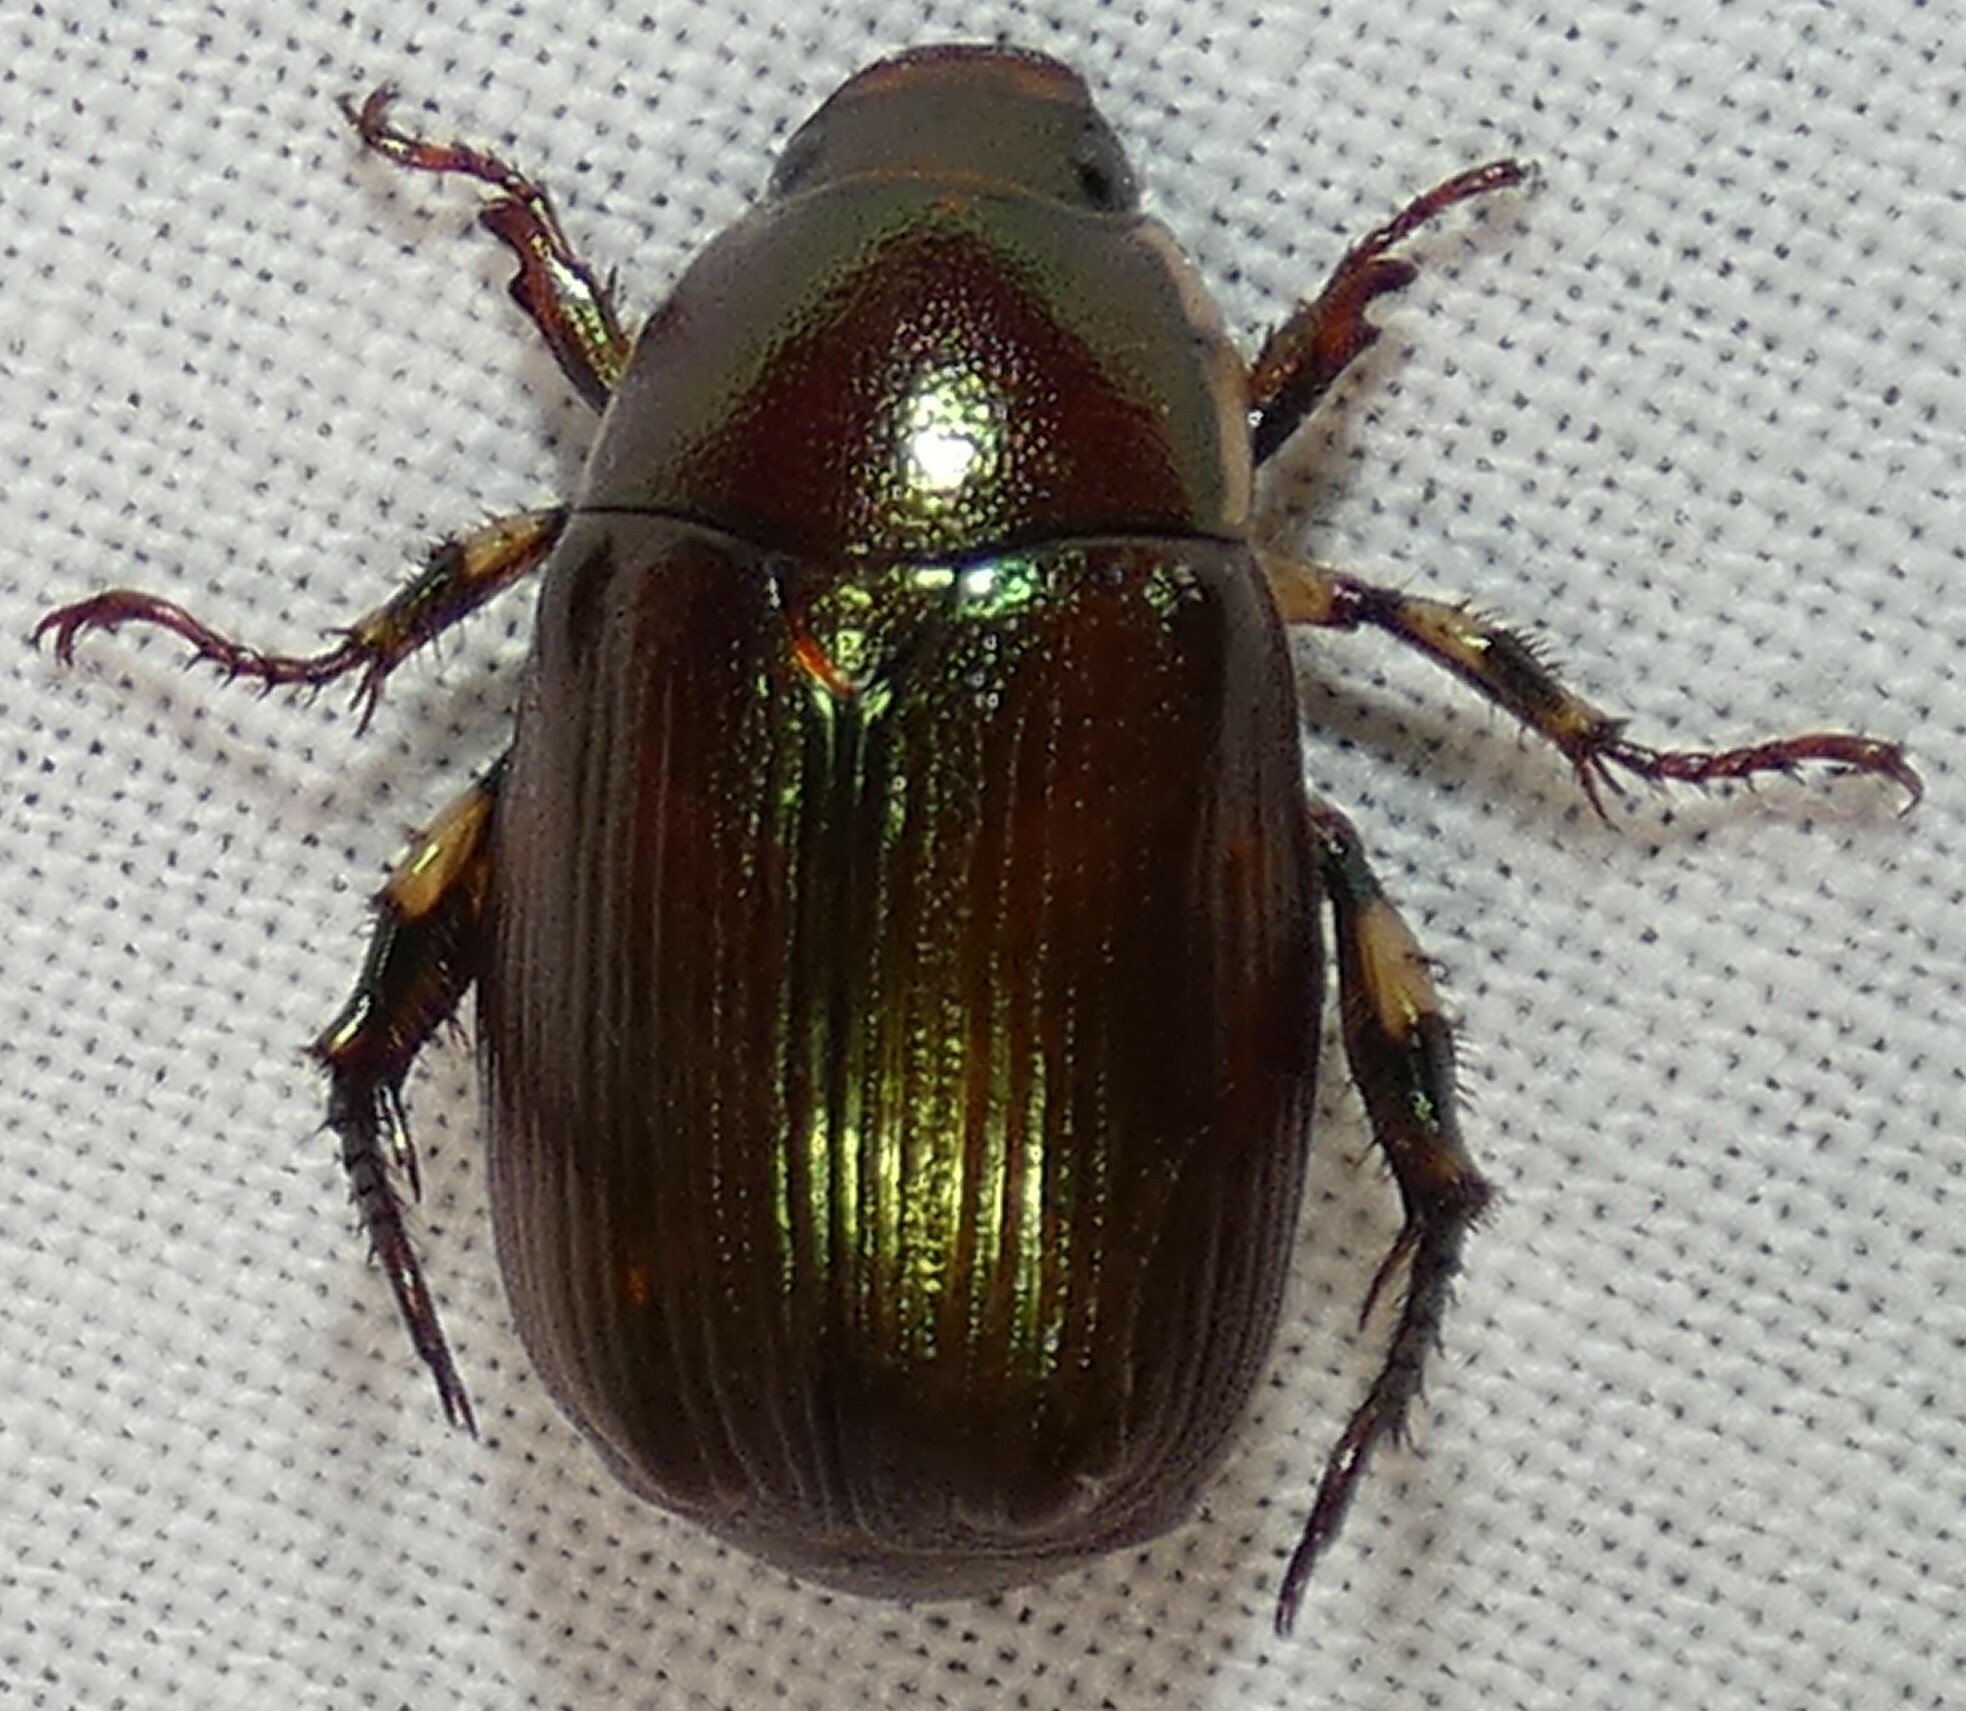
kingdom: Animalia
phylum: Arthropoda
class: Insecta
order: Coleoptera
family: Scarabaeidae
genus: Callistethus
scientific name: Callistethus marginatus
